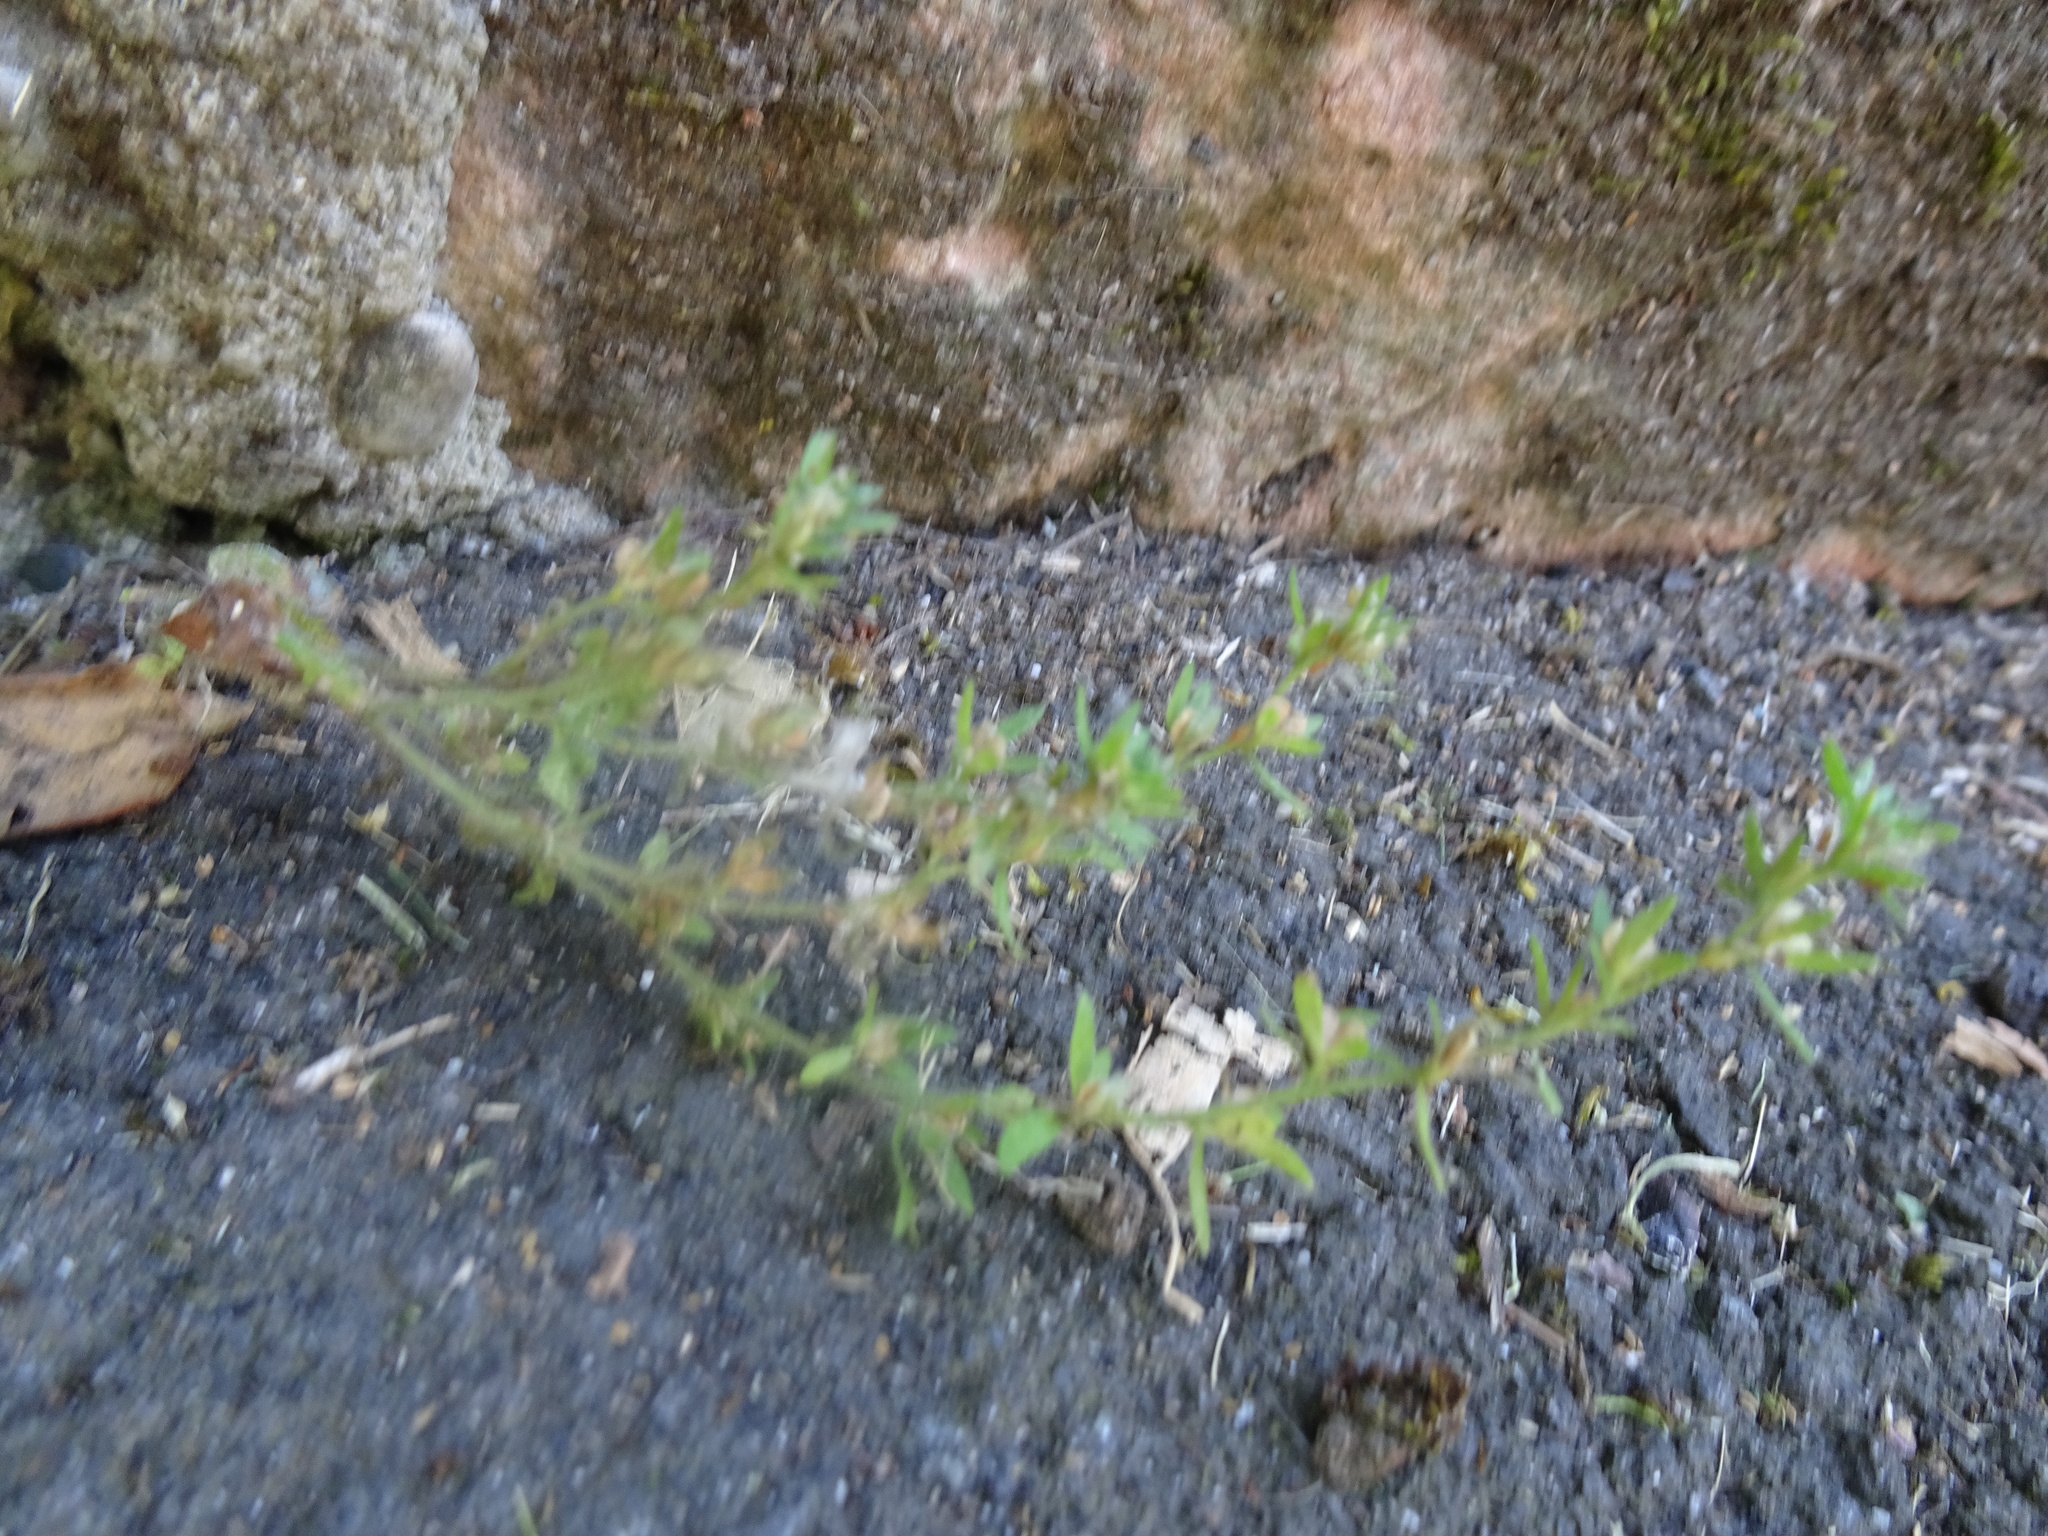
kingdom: Plantae
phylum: Tracheophyta
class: Magnoliopsida
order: Lamiales
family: Plantaginaceae
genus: Veronica
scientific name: Veronica arvensis
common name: Corn speedwell
